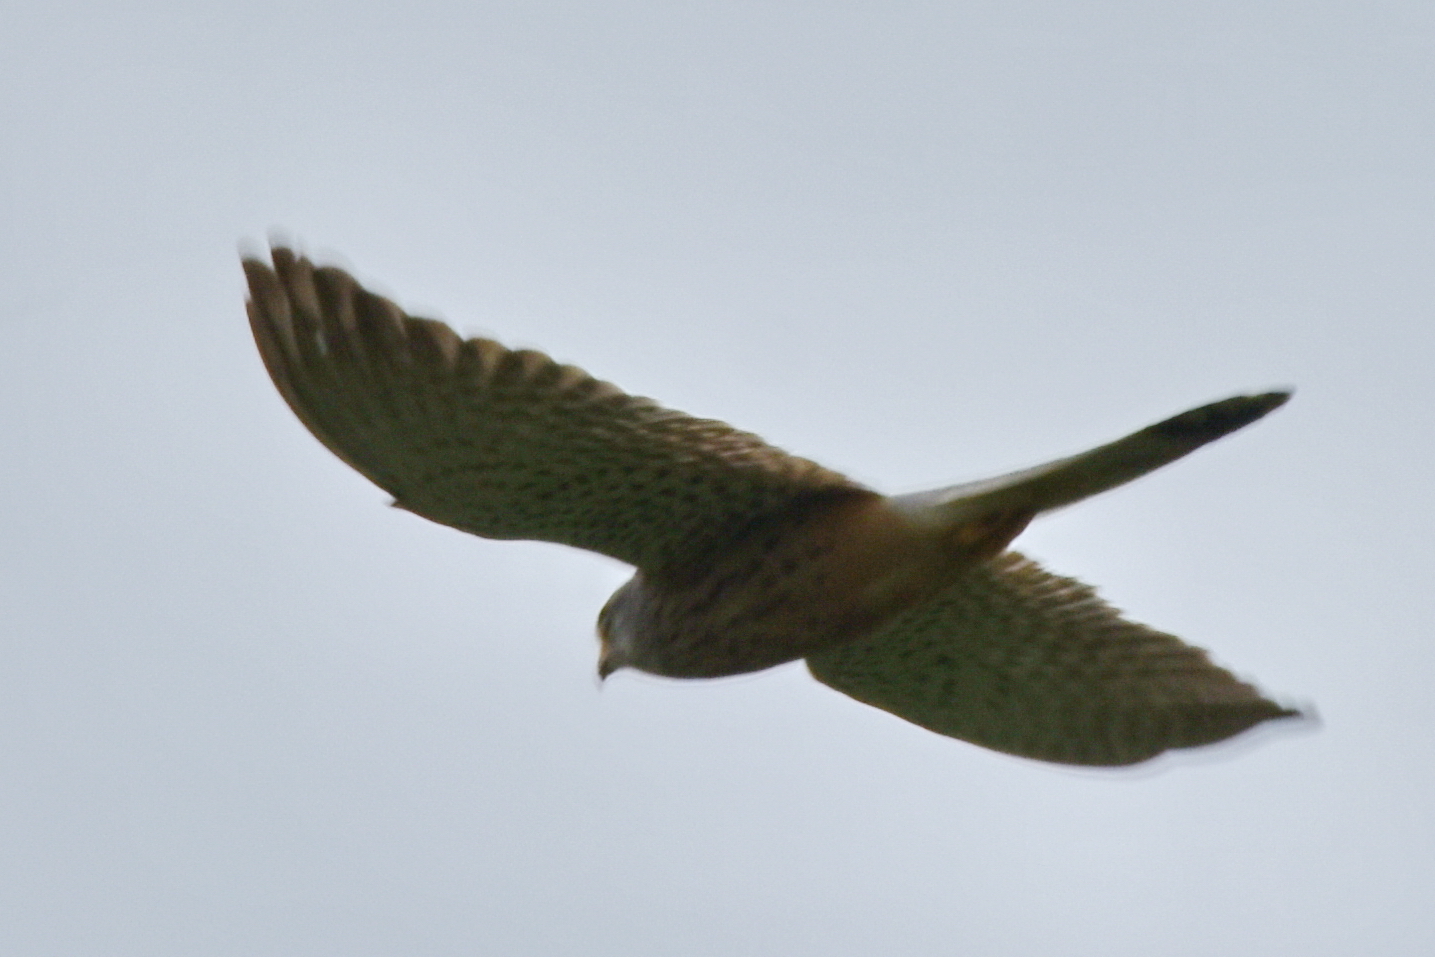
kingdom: Animalia
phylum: Chordata
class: Aves
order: Falconiformes
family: Falconidae
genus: Falco
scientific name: Falco tinnunculus
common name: Common kestrel
